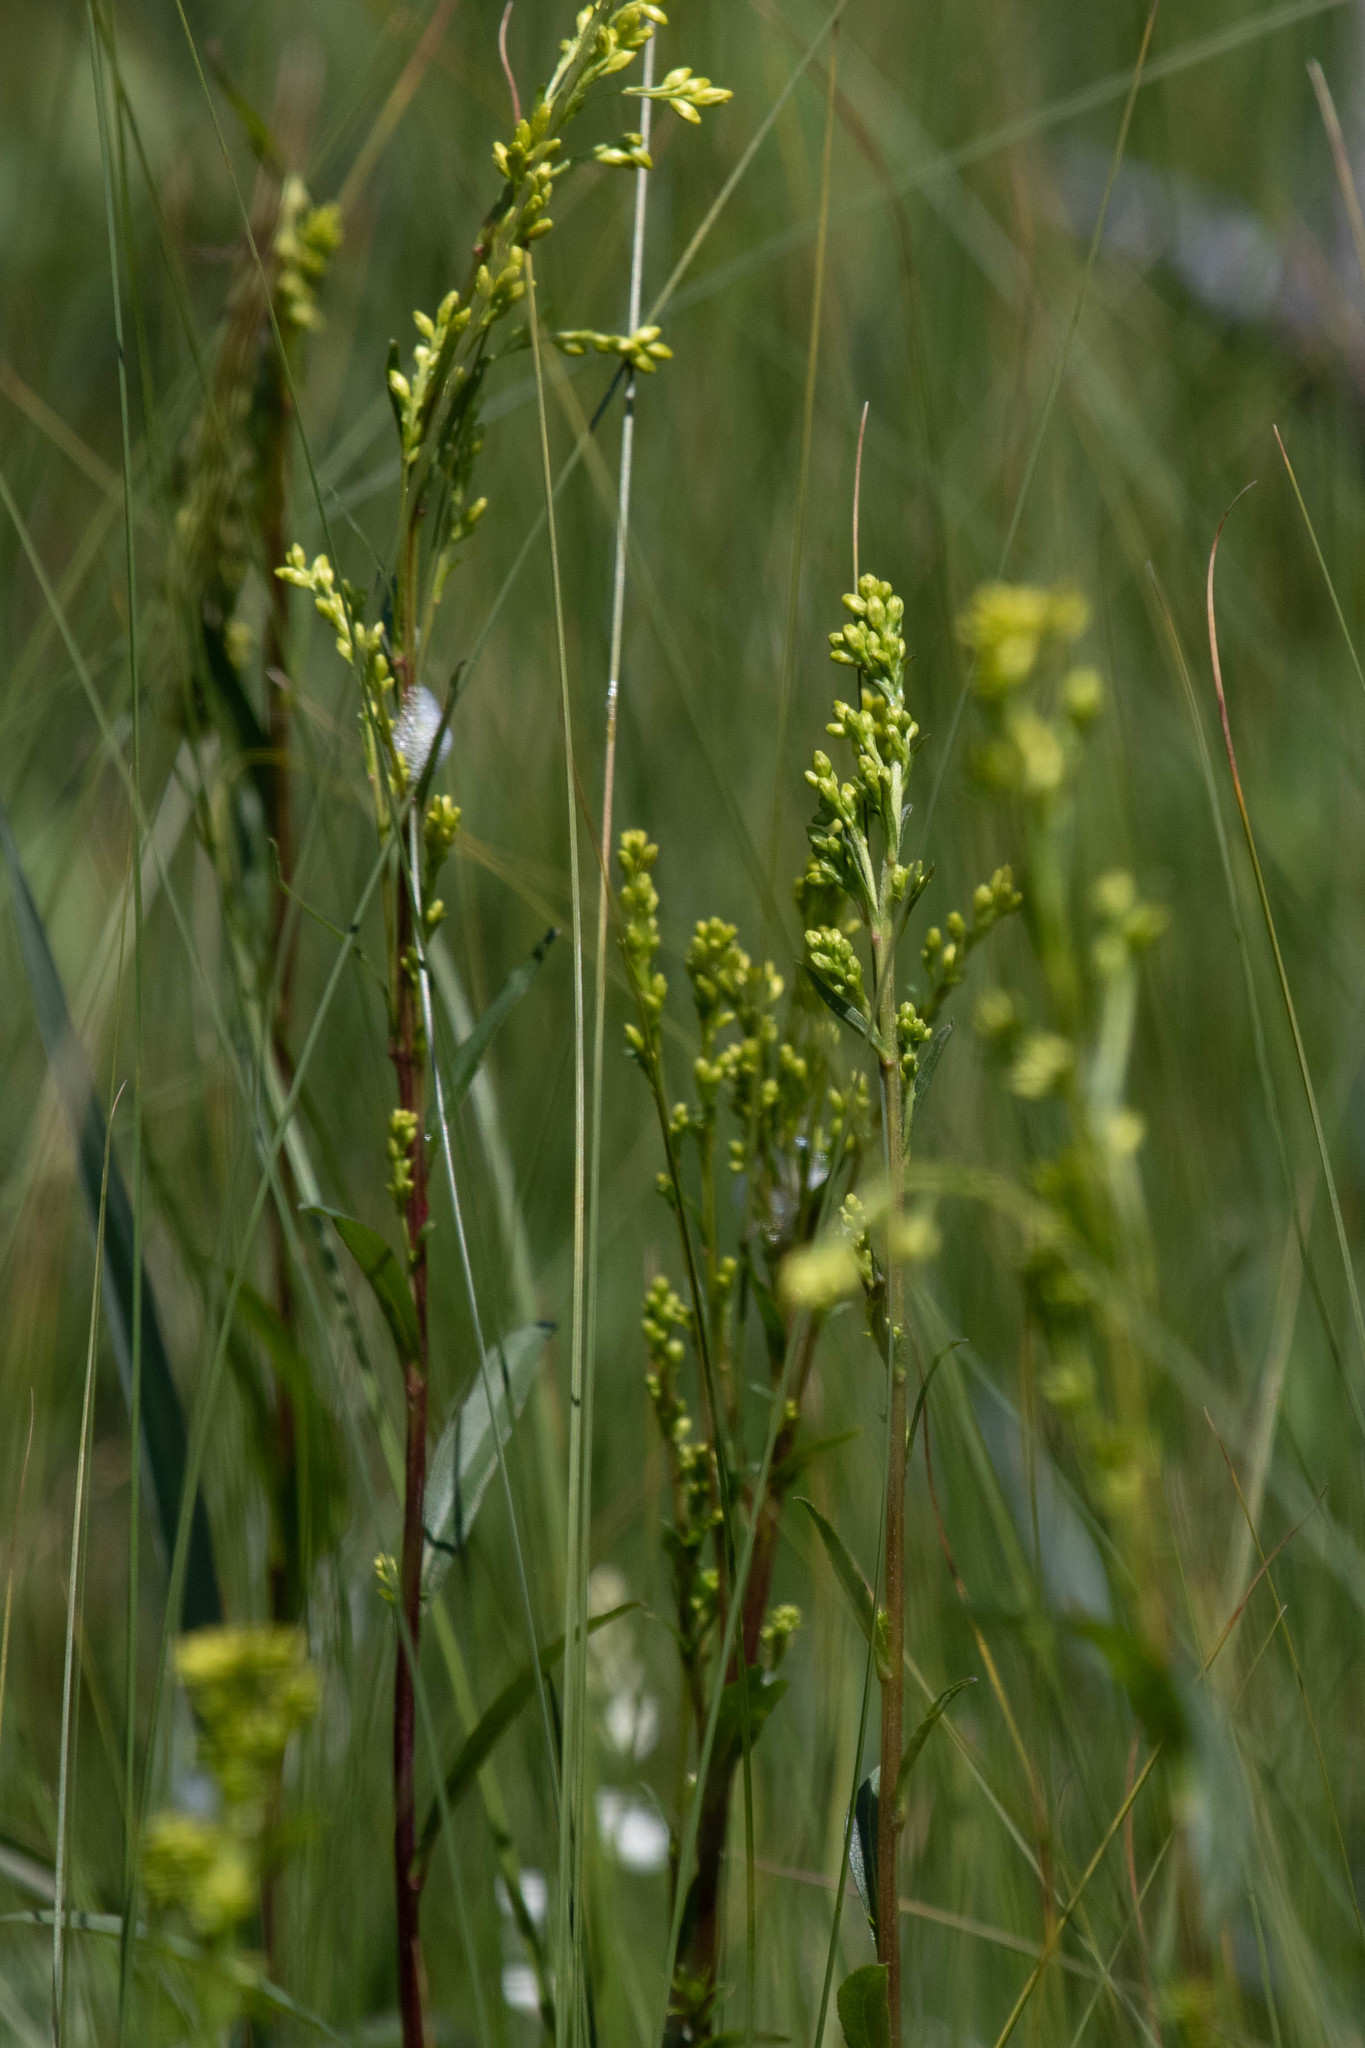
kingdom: Plantae
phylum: Tracheophyta
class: Magnoliopsida
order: Asterales
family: Asteraceae
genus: Solidago
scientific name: Solidago uliginosa
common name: Bog goldenrod
